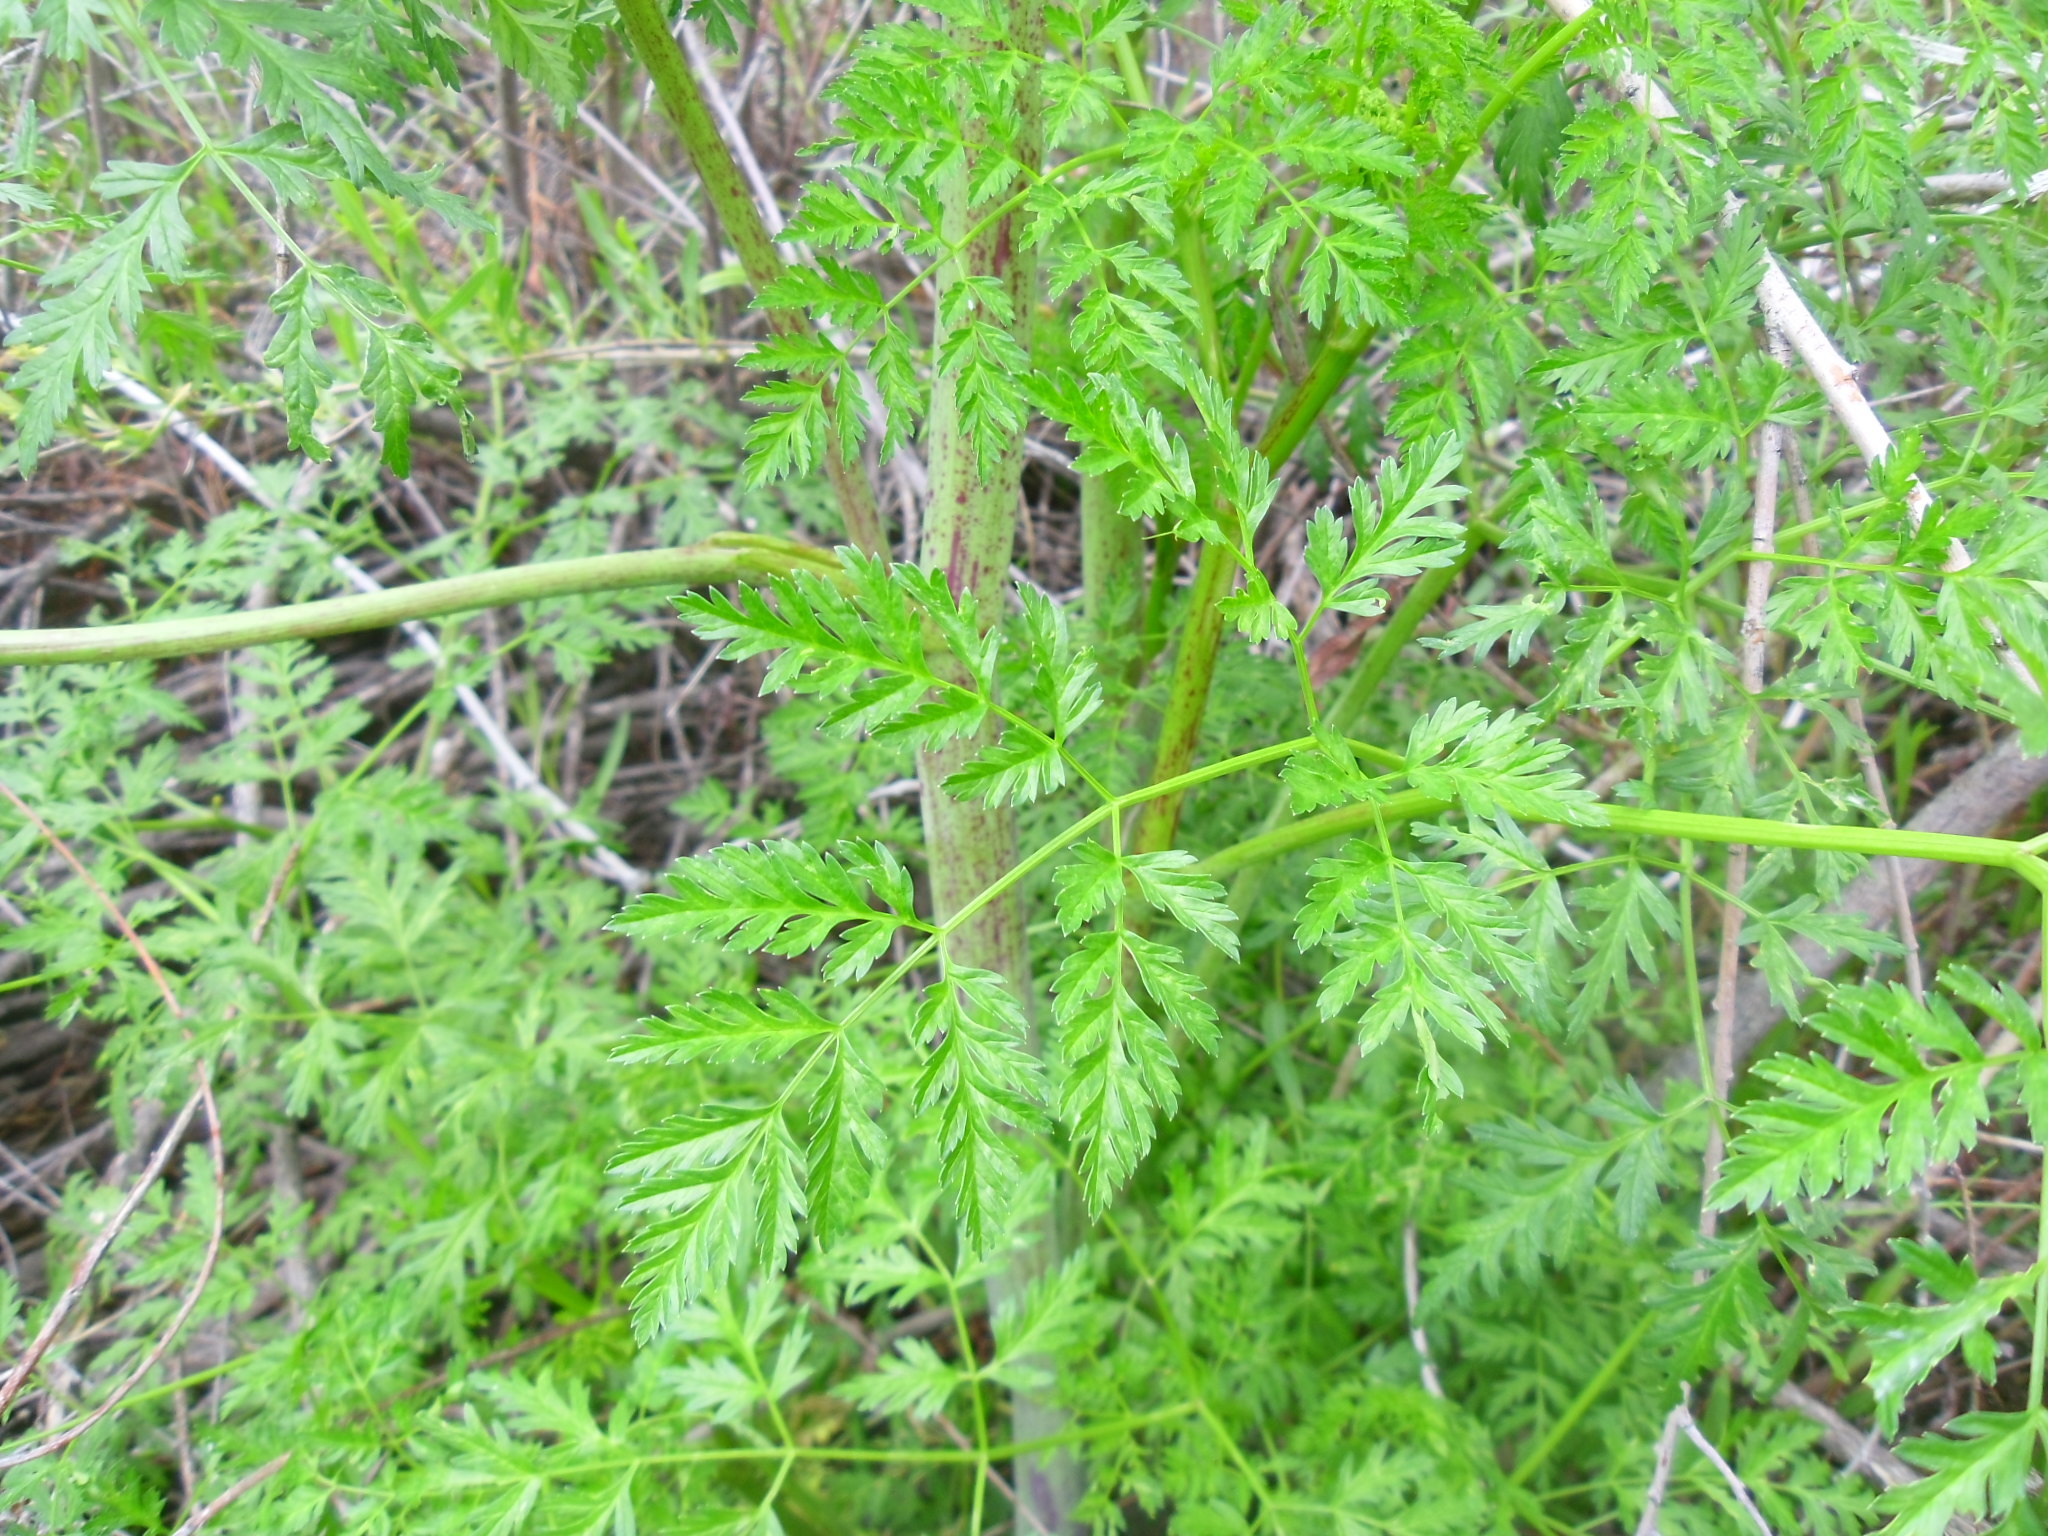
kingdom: Plantae
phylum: Tracheophyta
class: Magnoliopsida
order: Apiales
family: Apiaceae
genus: Conium
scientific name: Conium maculatum
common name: Hemlock
